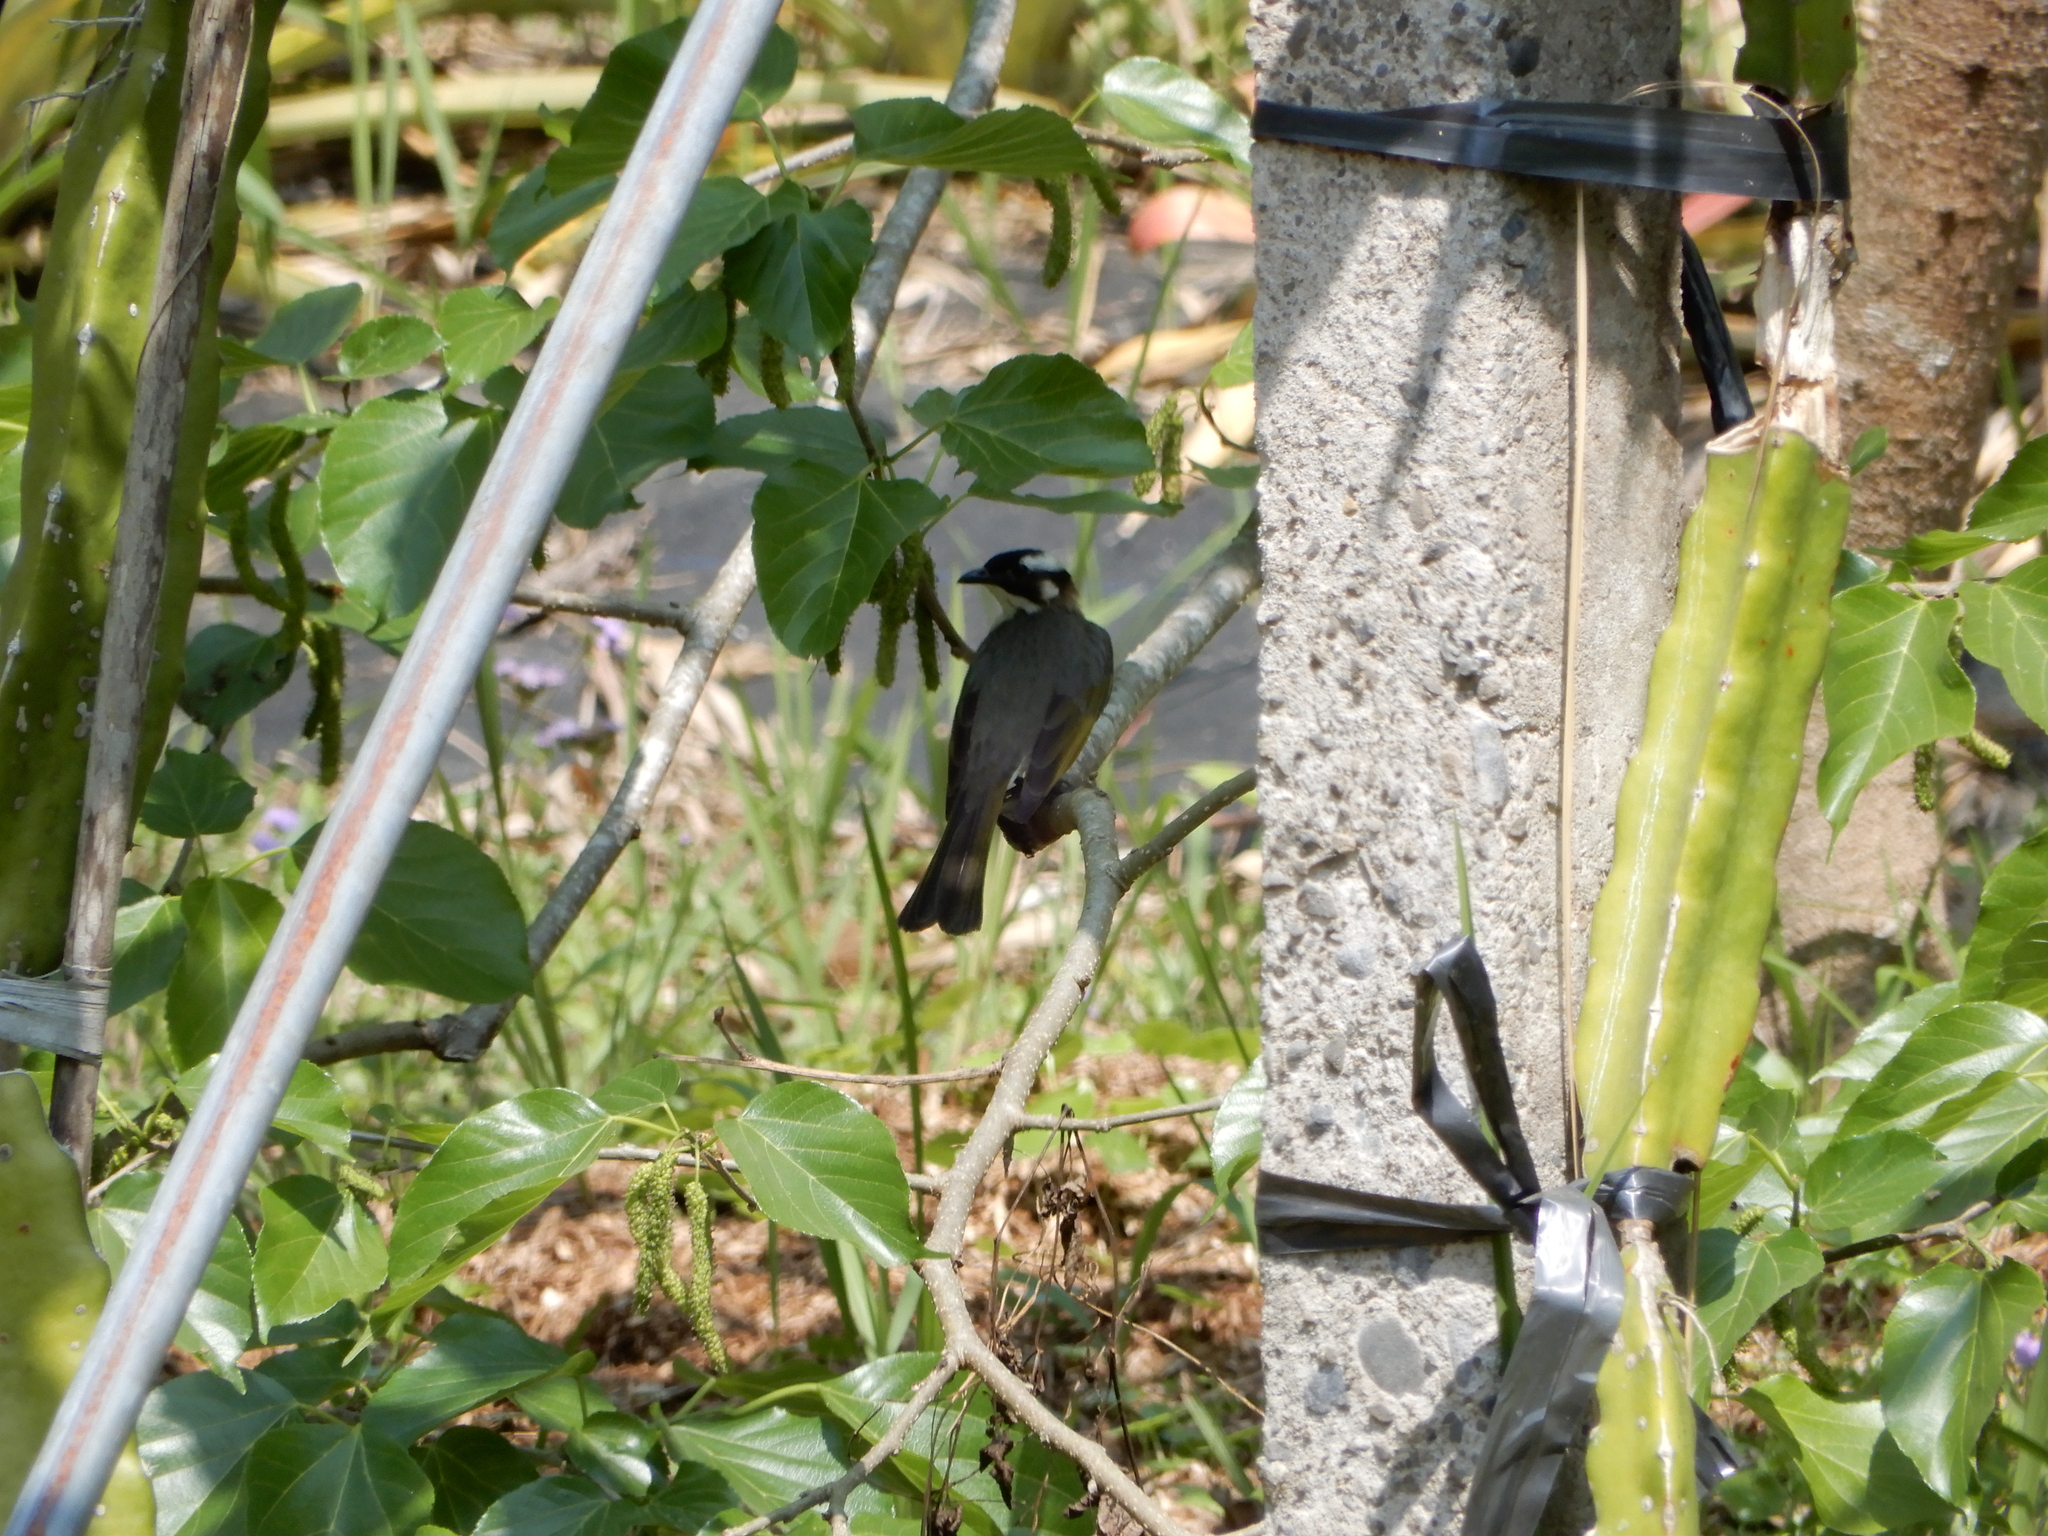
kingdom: Animalia
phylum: Chordata
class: Aves
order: Passeriformes
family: Pycnonotidae
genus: Pycnonotus
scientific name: Pycnonotus sinensis
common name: Light-vented bulbul
